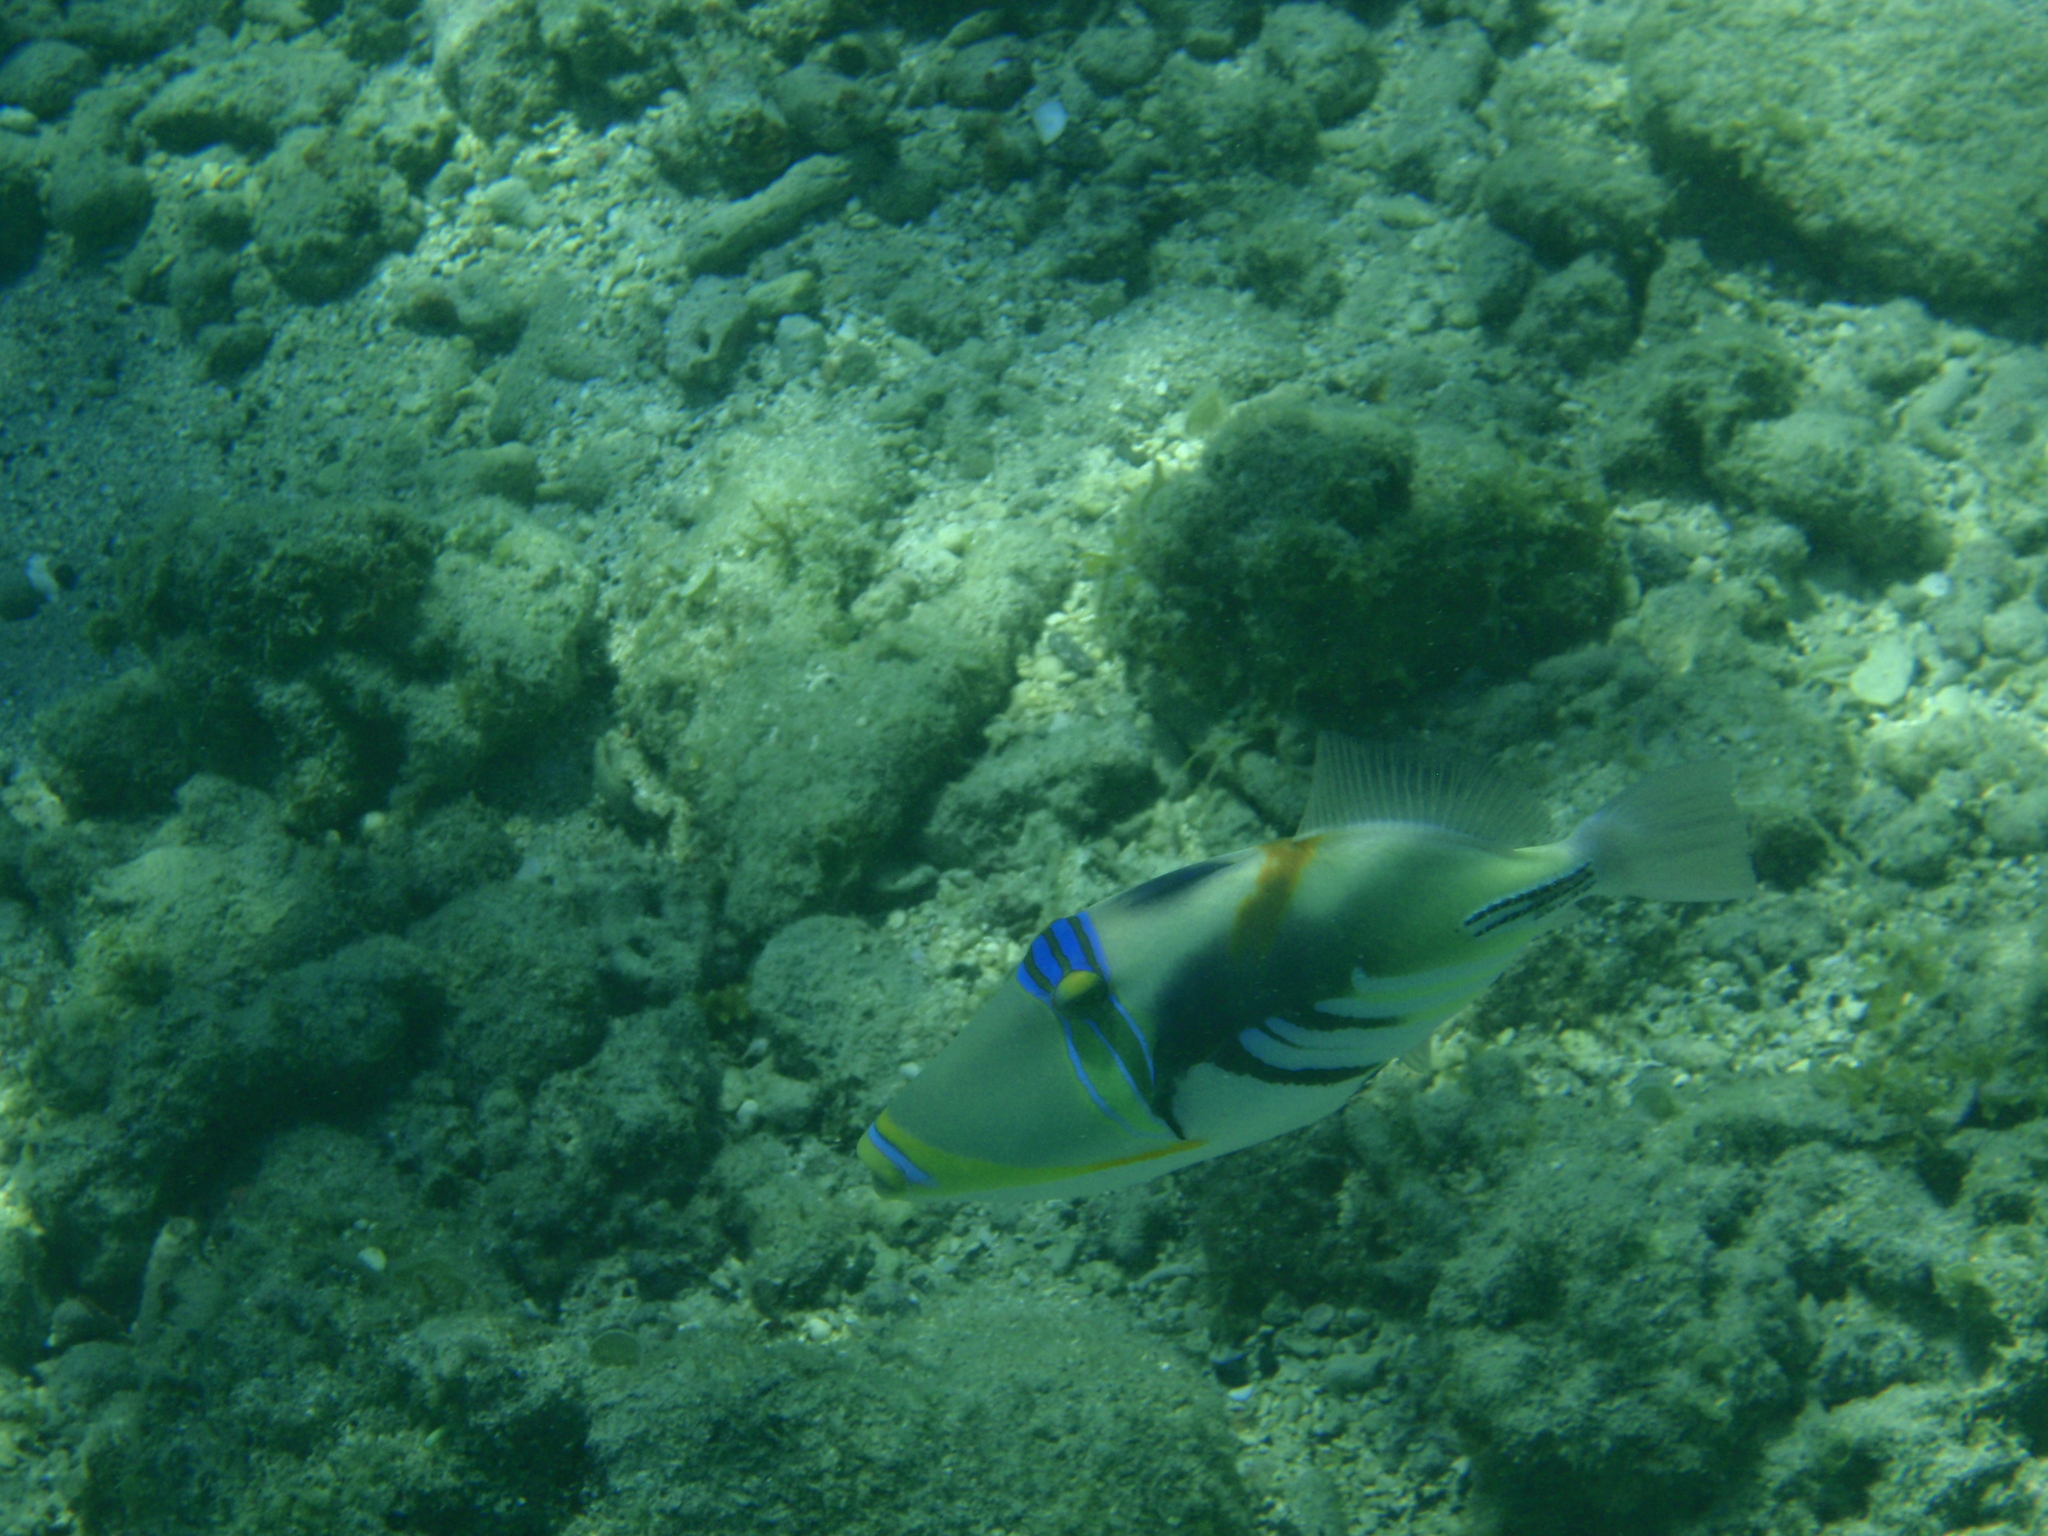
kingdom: Animalia
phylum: Chordata
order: Tetraodontiformes
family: Balistidae
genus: Rhinecanthus
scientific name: Rhinecanthus aculeatus
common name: White-banded triggerfish
